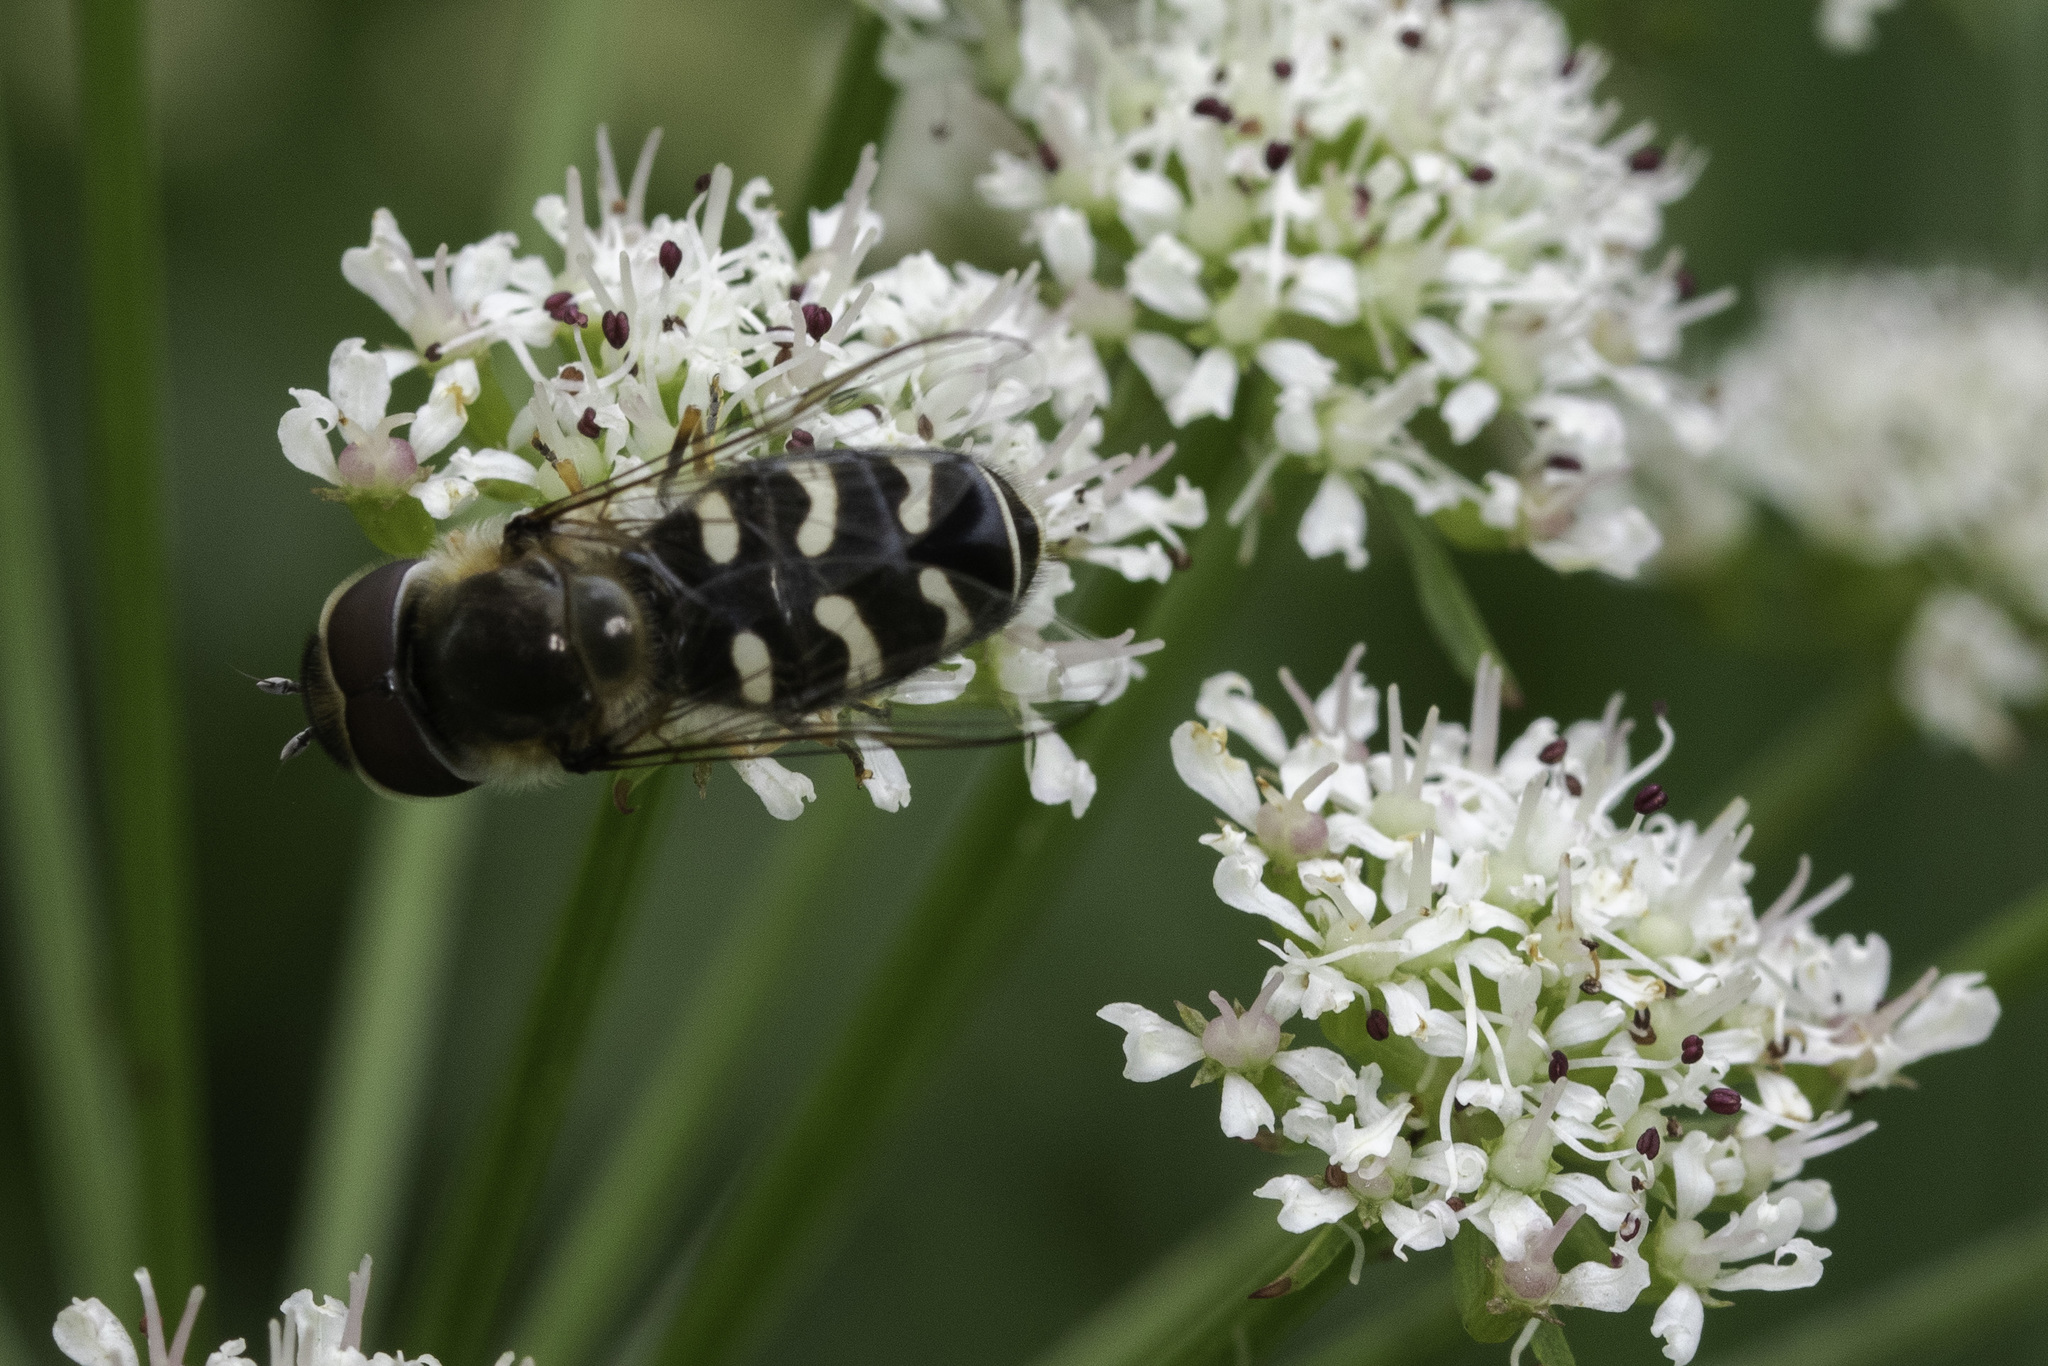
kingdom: Animalia
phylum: Arthropoda
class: Insecta
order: Diptera
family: Syrphidae
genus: Scaeva
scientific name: Scaeva pyrastri
